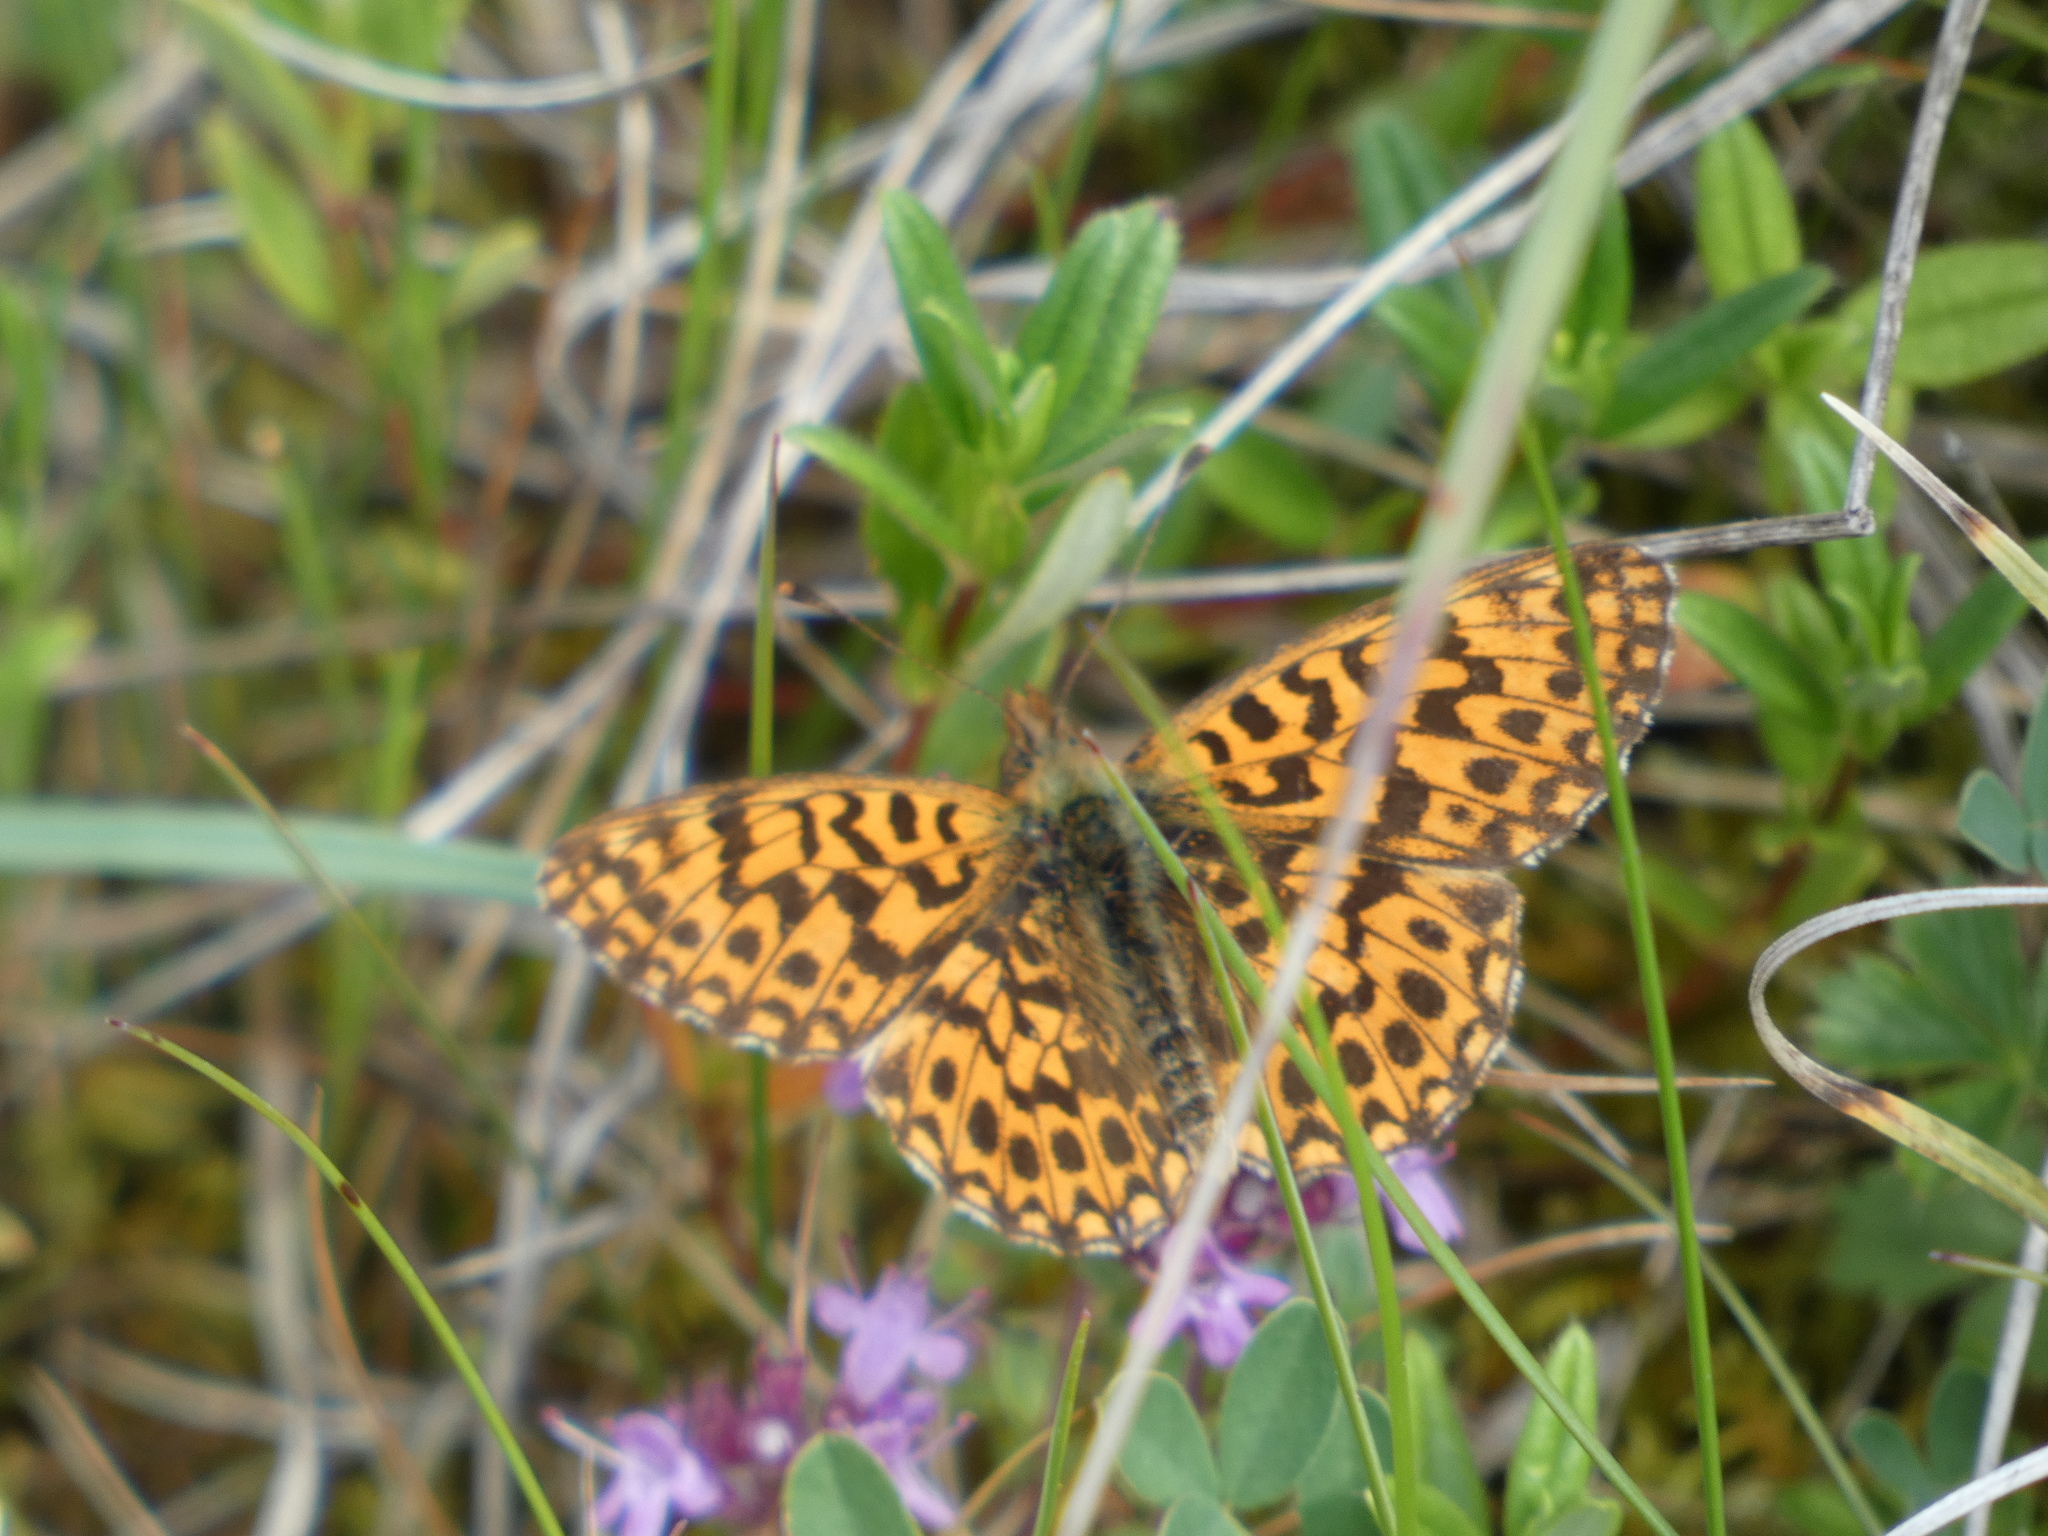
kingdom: Animalia
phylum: Arthropoda
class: Insecta
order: Lepidoptera
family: Nymphalidae
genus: Boloria
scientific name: Boloria dia
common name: Weaver's fritillary
